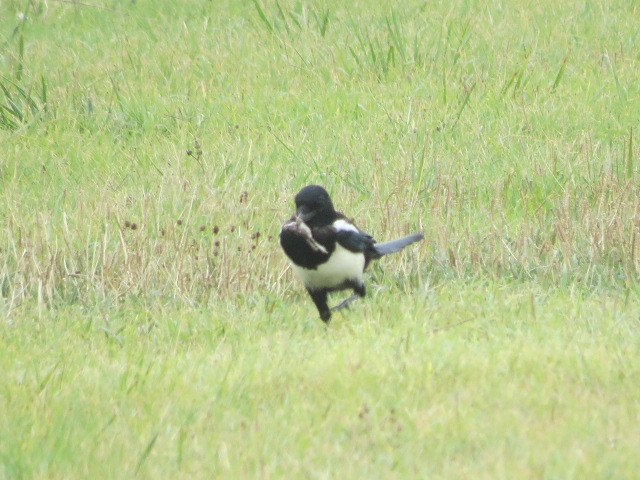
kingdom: Animalia
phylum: Chordata
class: Aves
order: Passeriformes
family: Corvidae
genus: Pica
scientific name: Pica pica
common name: Eurasian magpie
